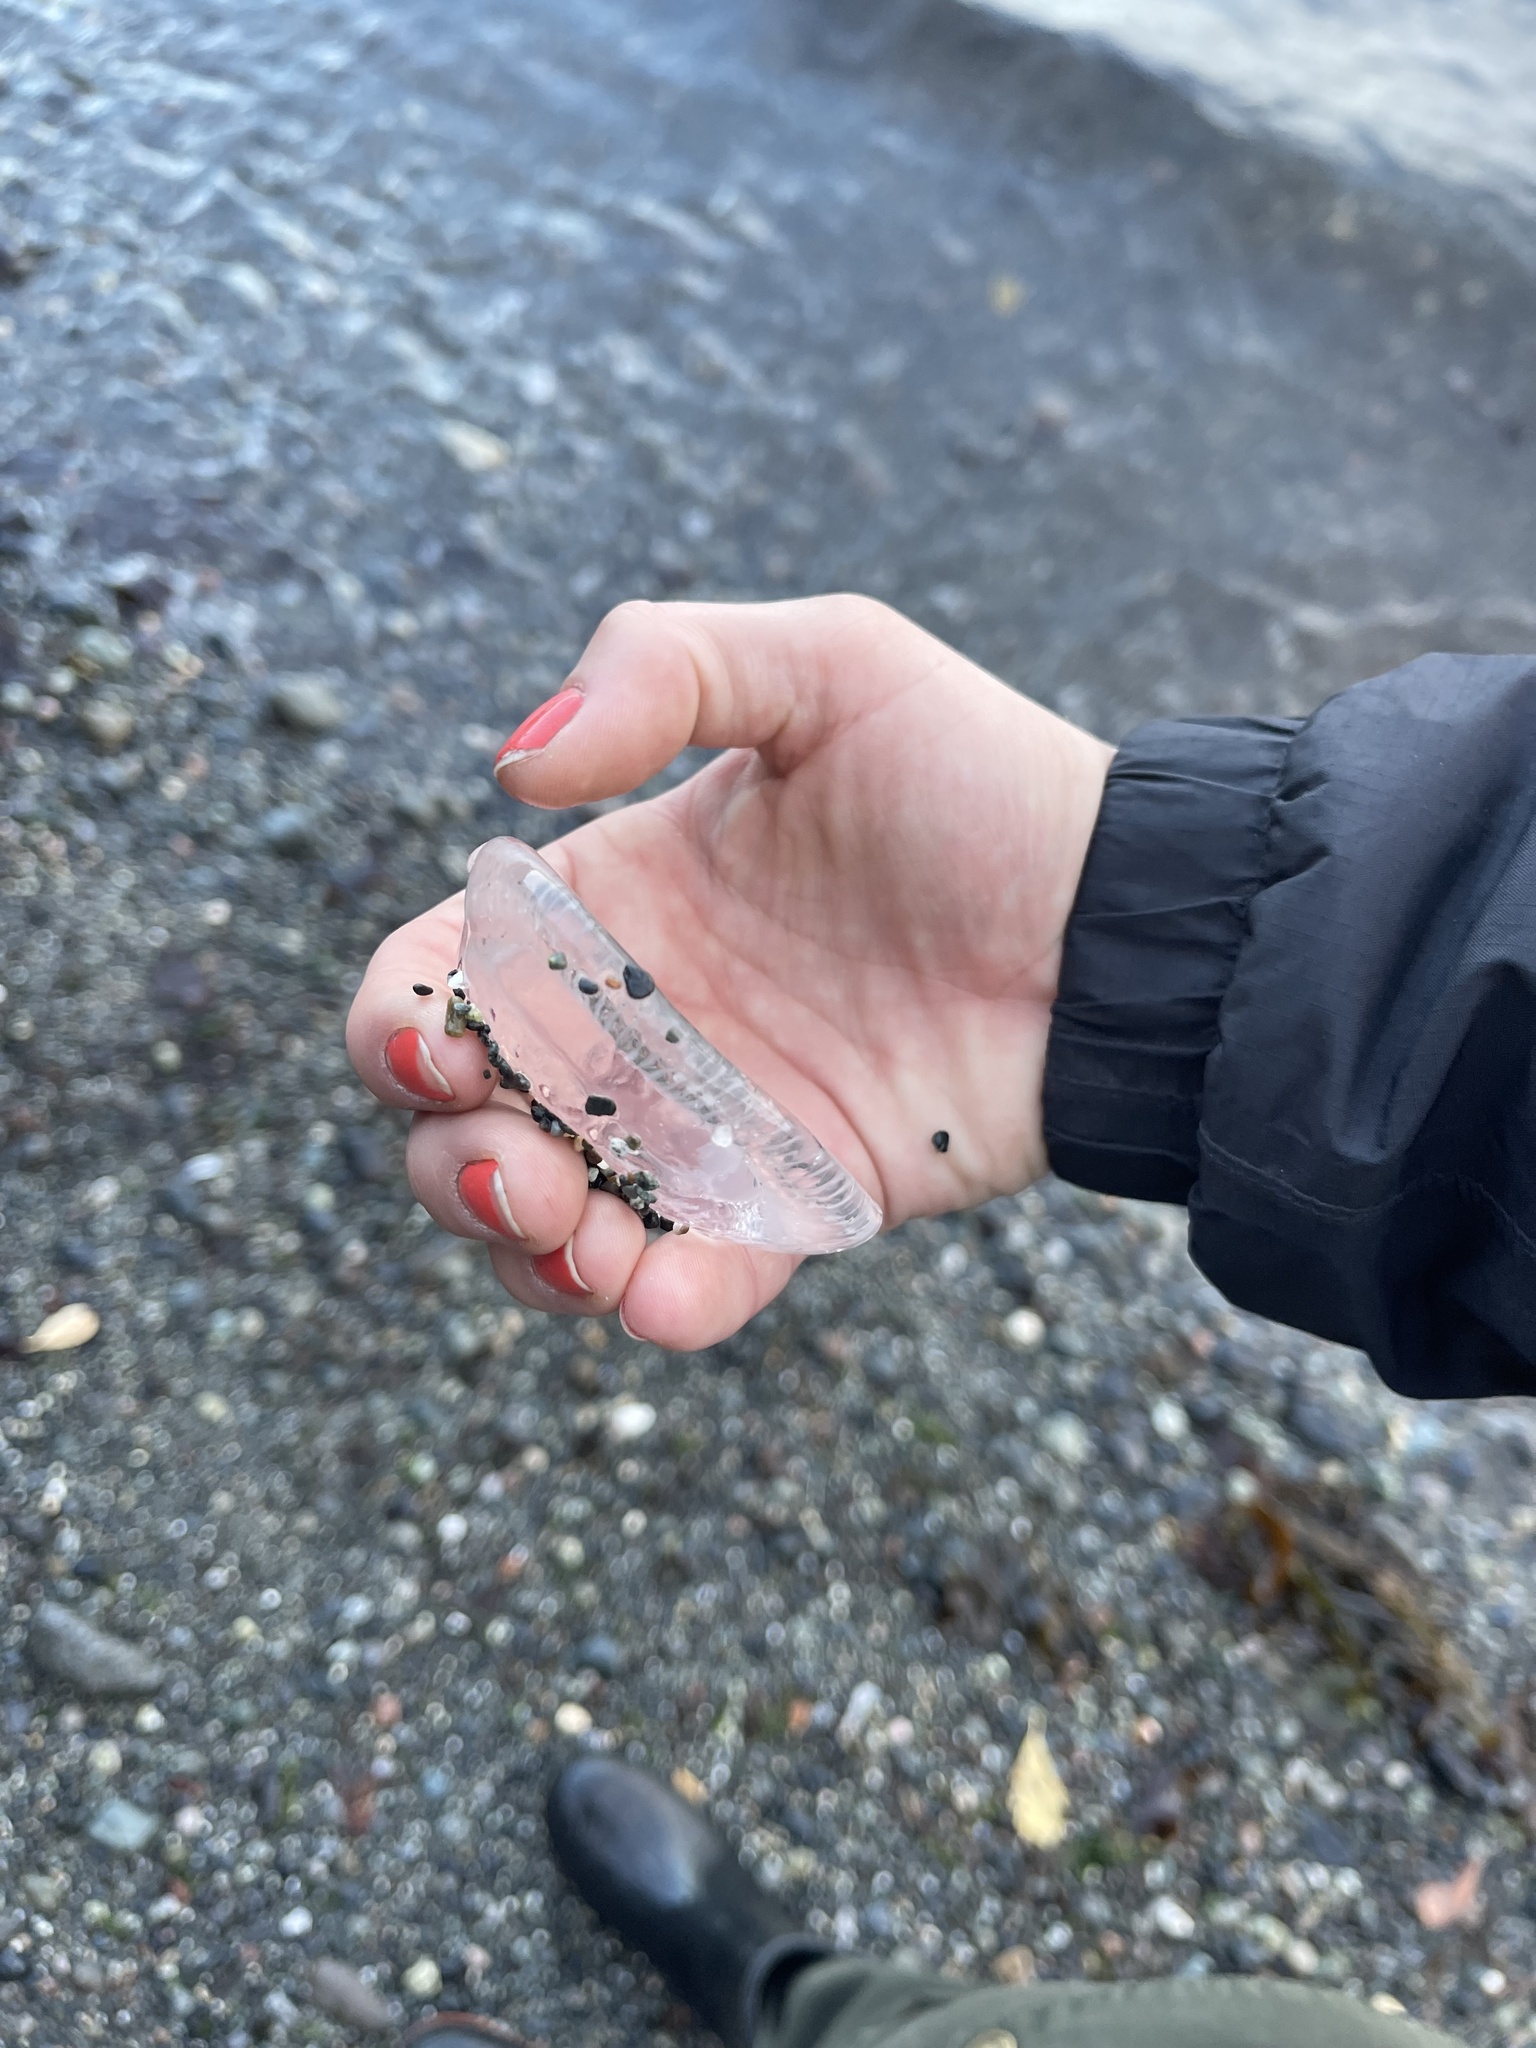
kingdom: Animalia
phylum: Cnidaria
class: Hydrozoa
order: Leptothecata
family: Aequoreidae
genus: Aequorea
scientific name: Aequorea victoria
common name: Water jellyfish
